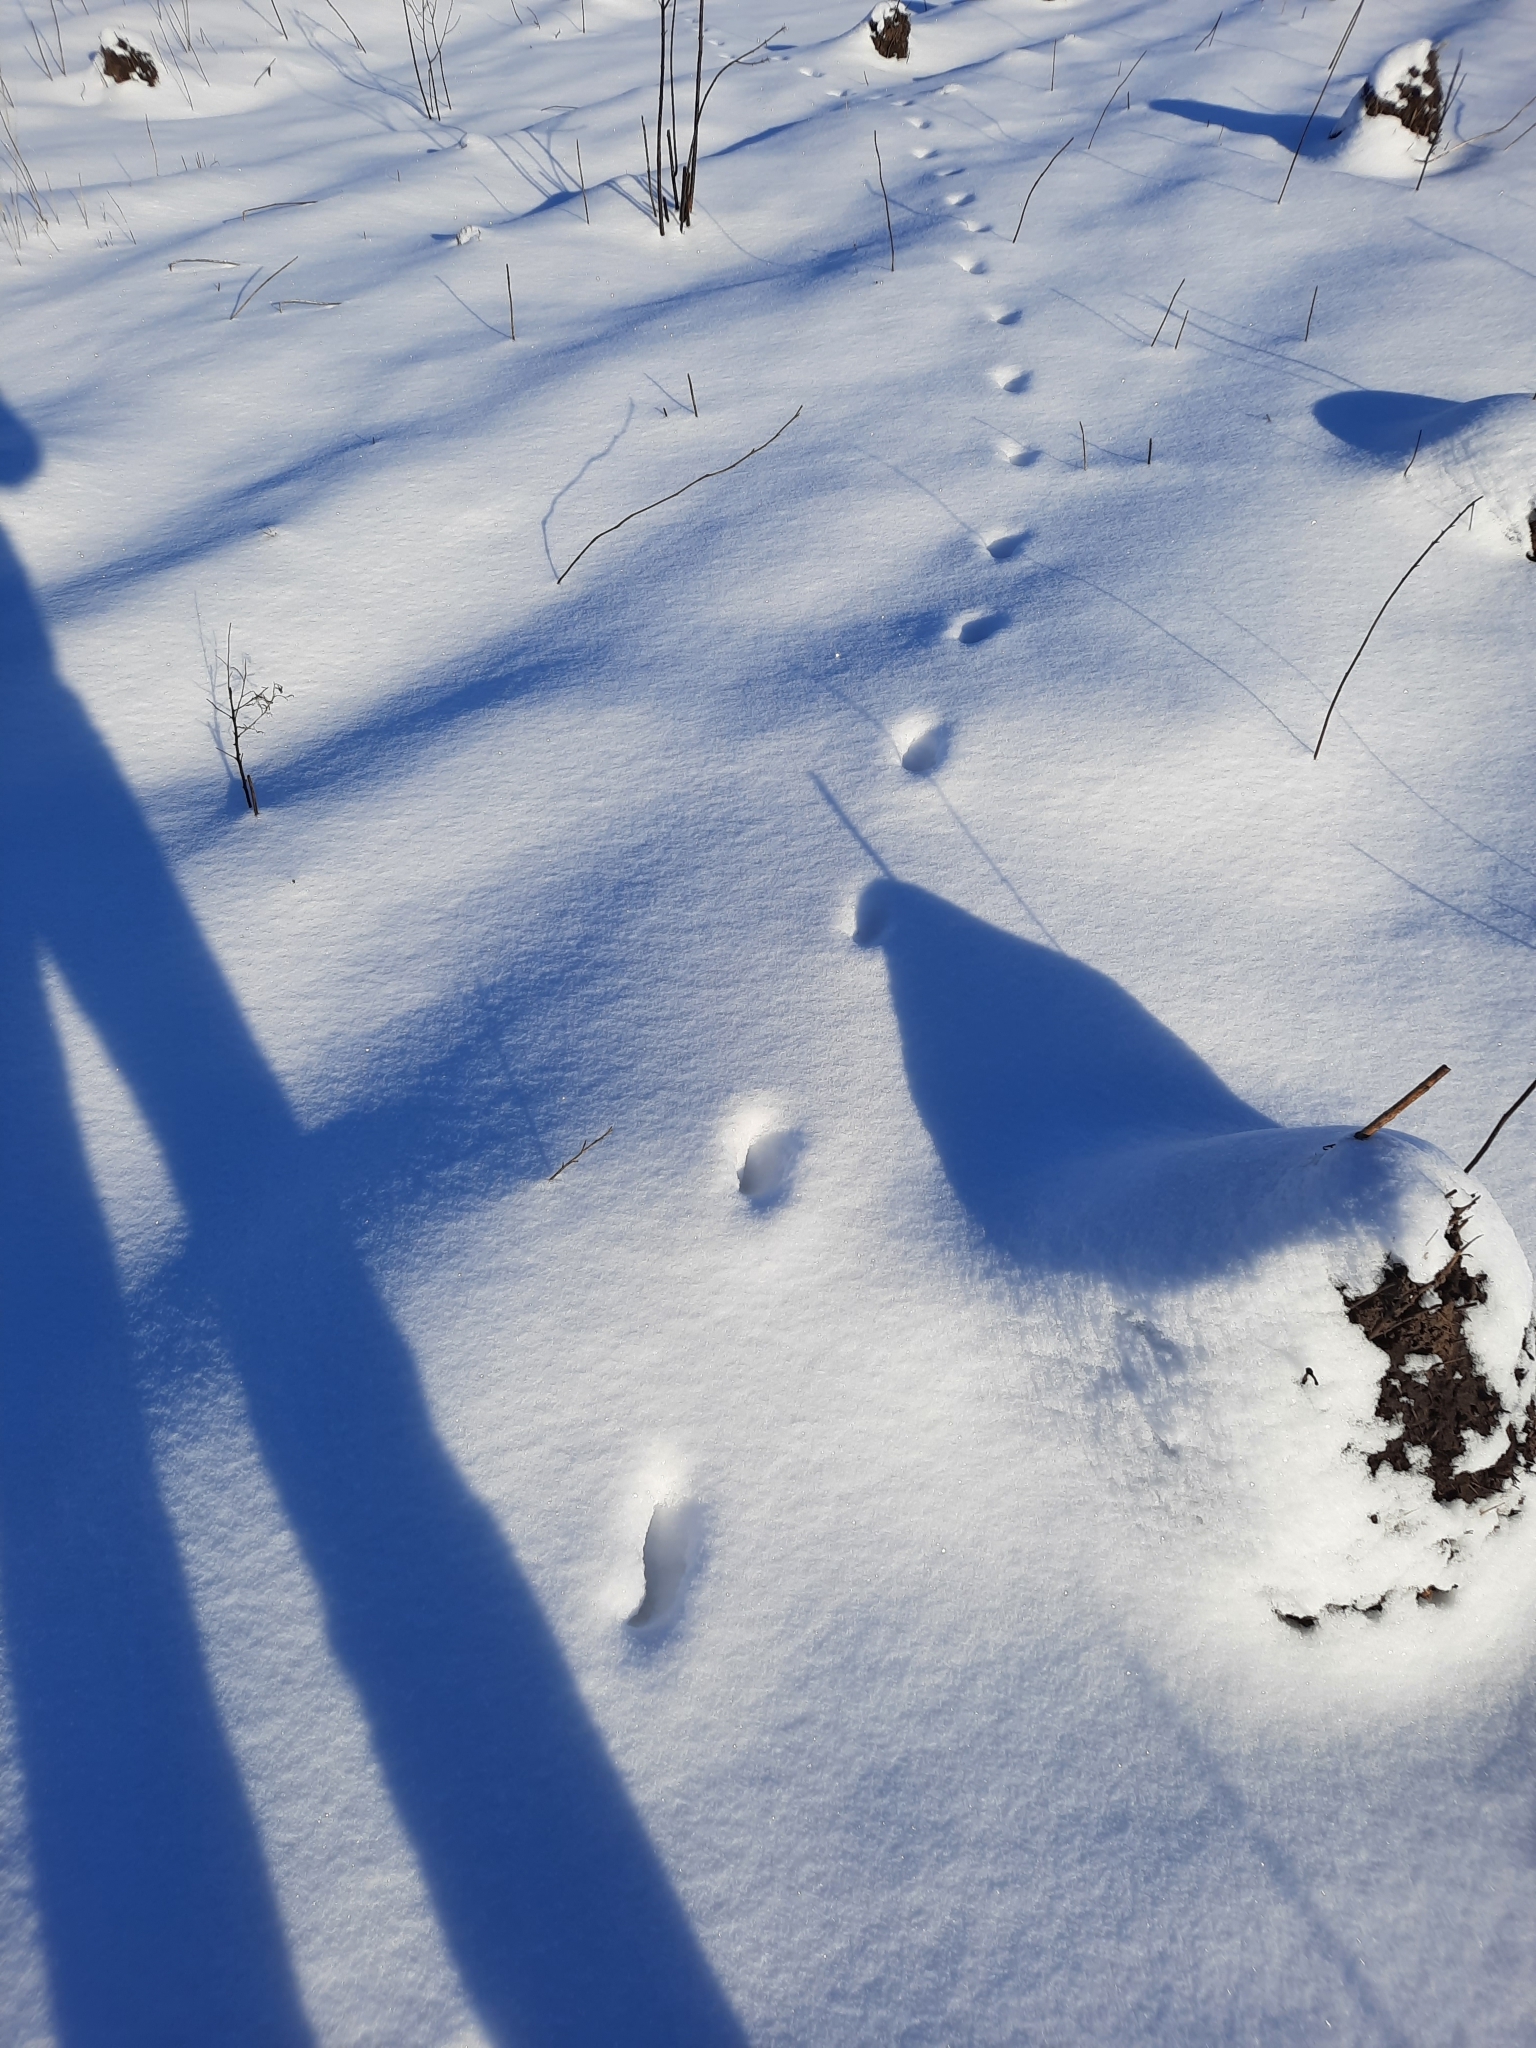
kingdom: Animalia
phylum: Chordata
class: Mammalia
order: Carnivora
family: Canidae
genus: Vulpes
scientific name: Vulpes vulpes
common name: Red fox
